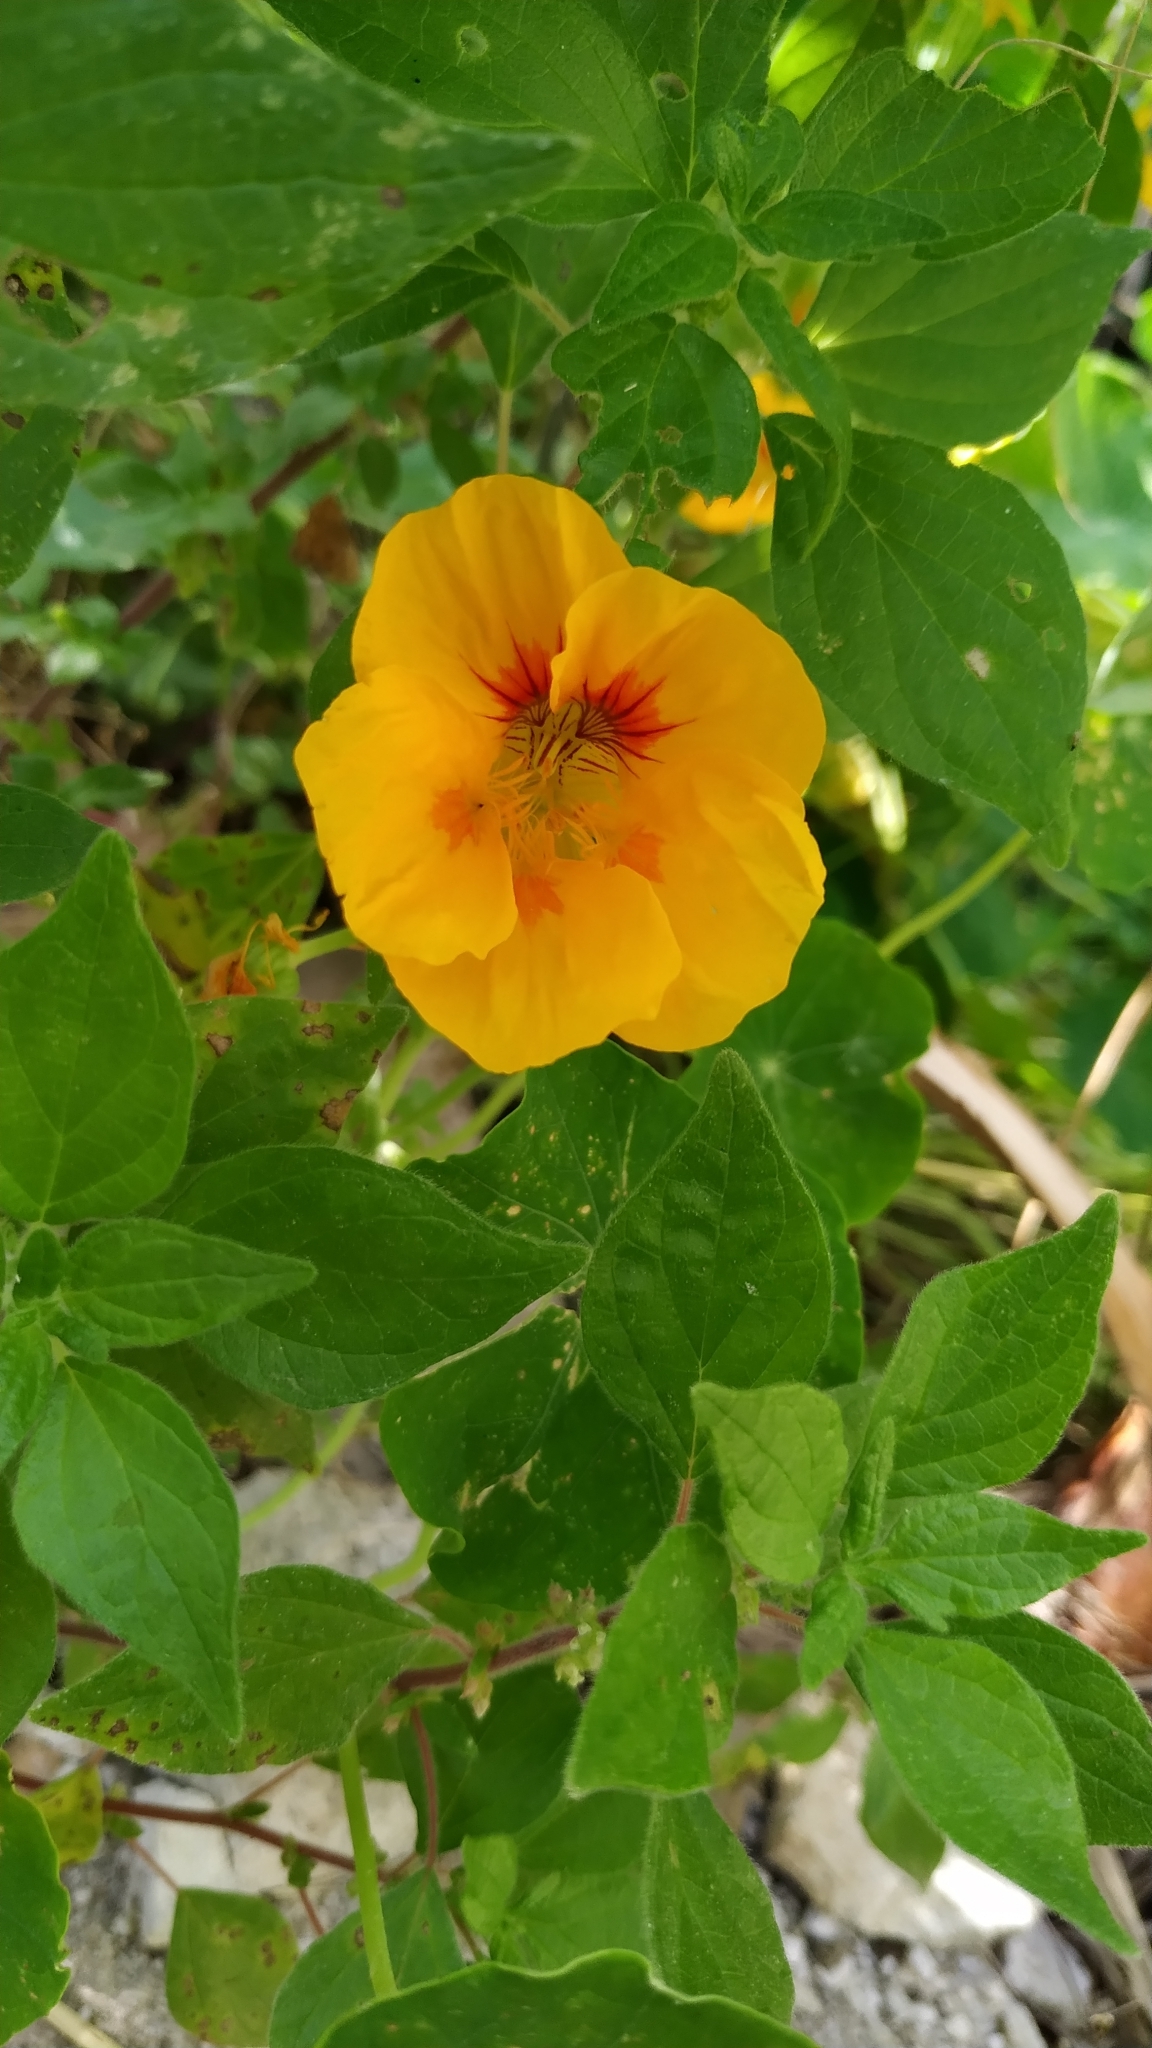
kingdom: Plantae
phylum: Tracheophyta
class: Magnoliopsida
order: Brassicales
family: Tropaeolaceae
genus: Tropaeolum
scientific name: Tropaeolum majus
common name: Nasturtium
